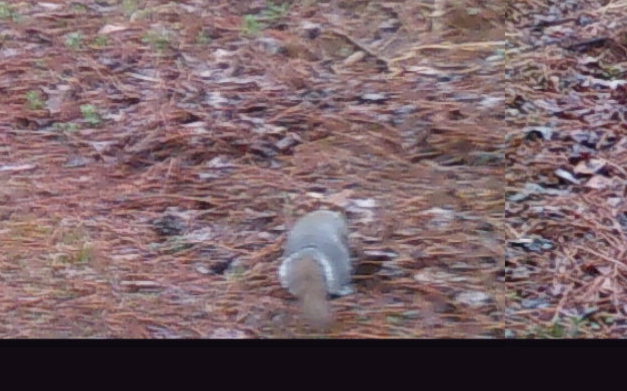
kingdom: Animalia
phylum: Chordata
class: Mammalia
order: Rodentia
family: Sciuridae
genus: Sciurus
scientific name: Sciurus carolinensis
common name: Eastern gray squirrel
